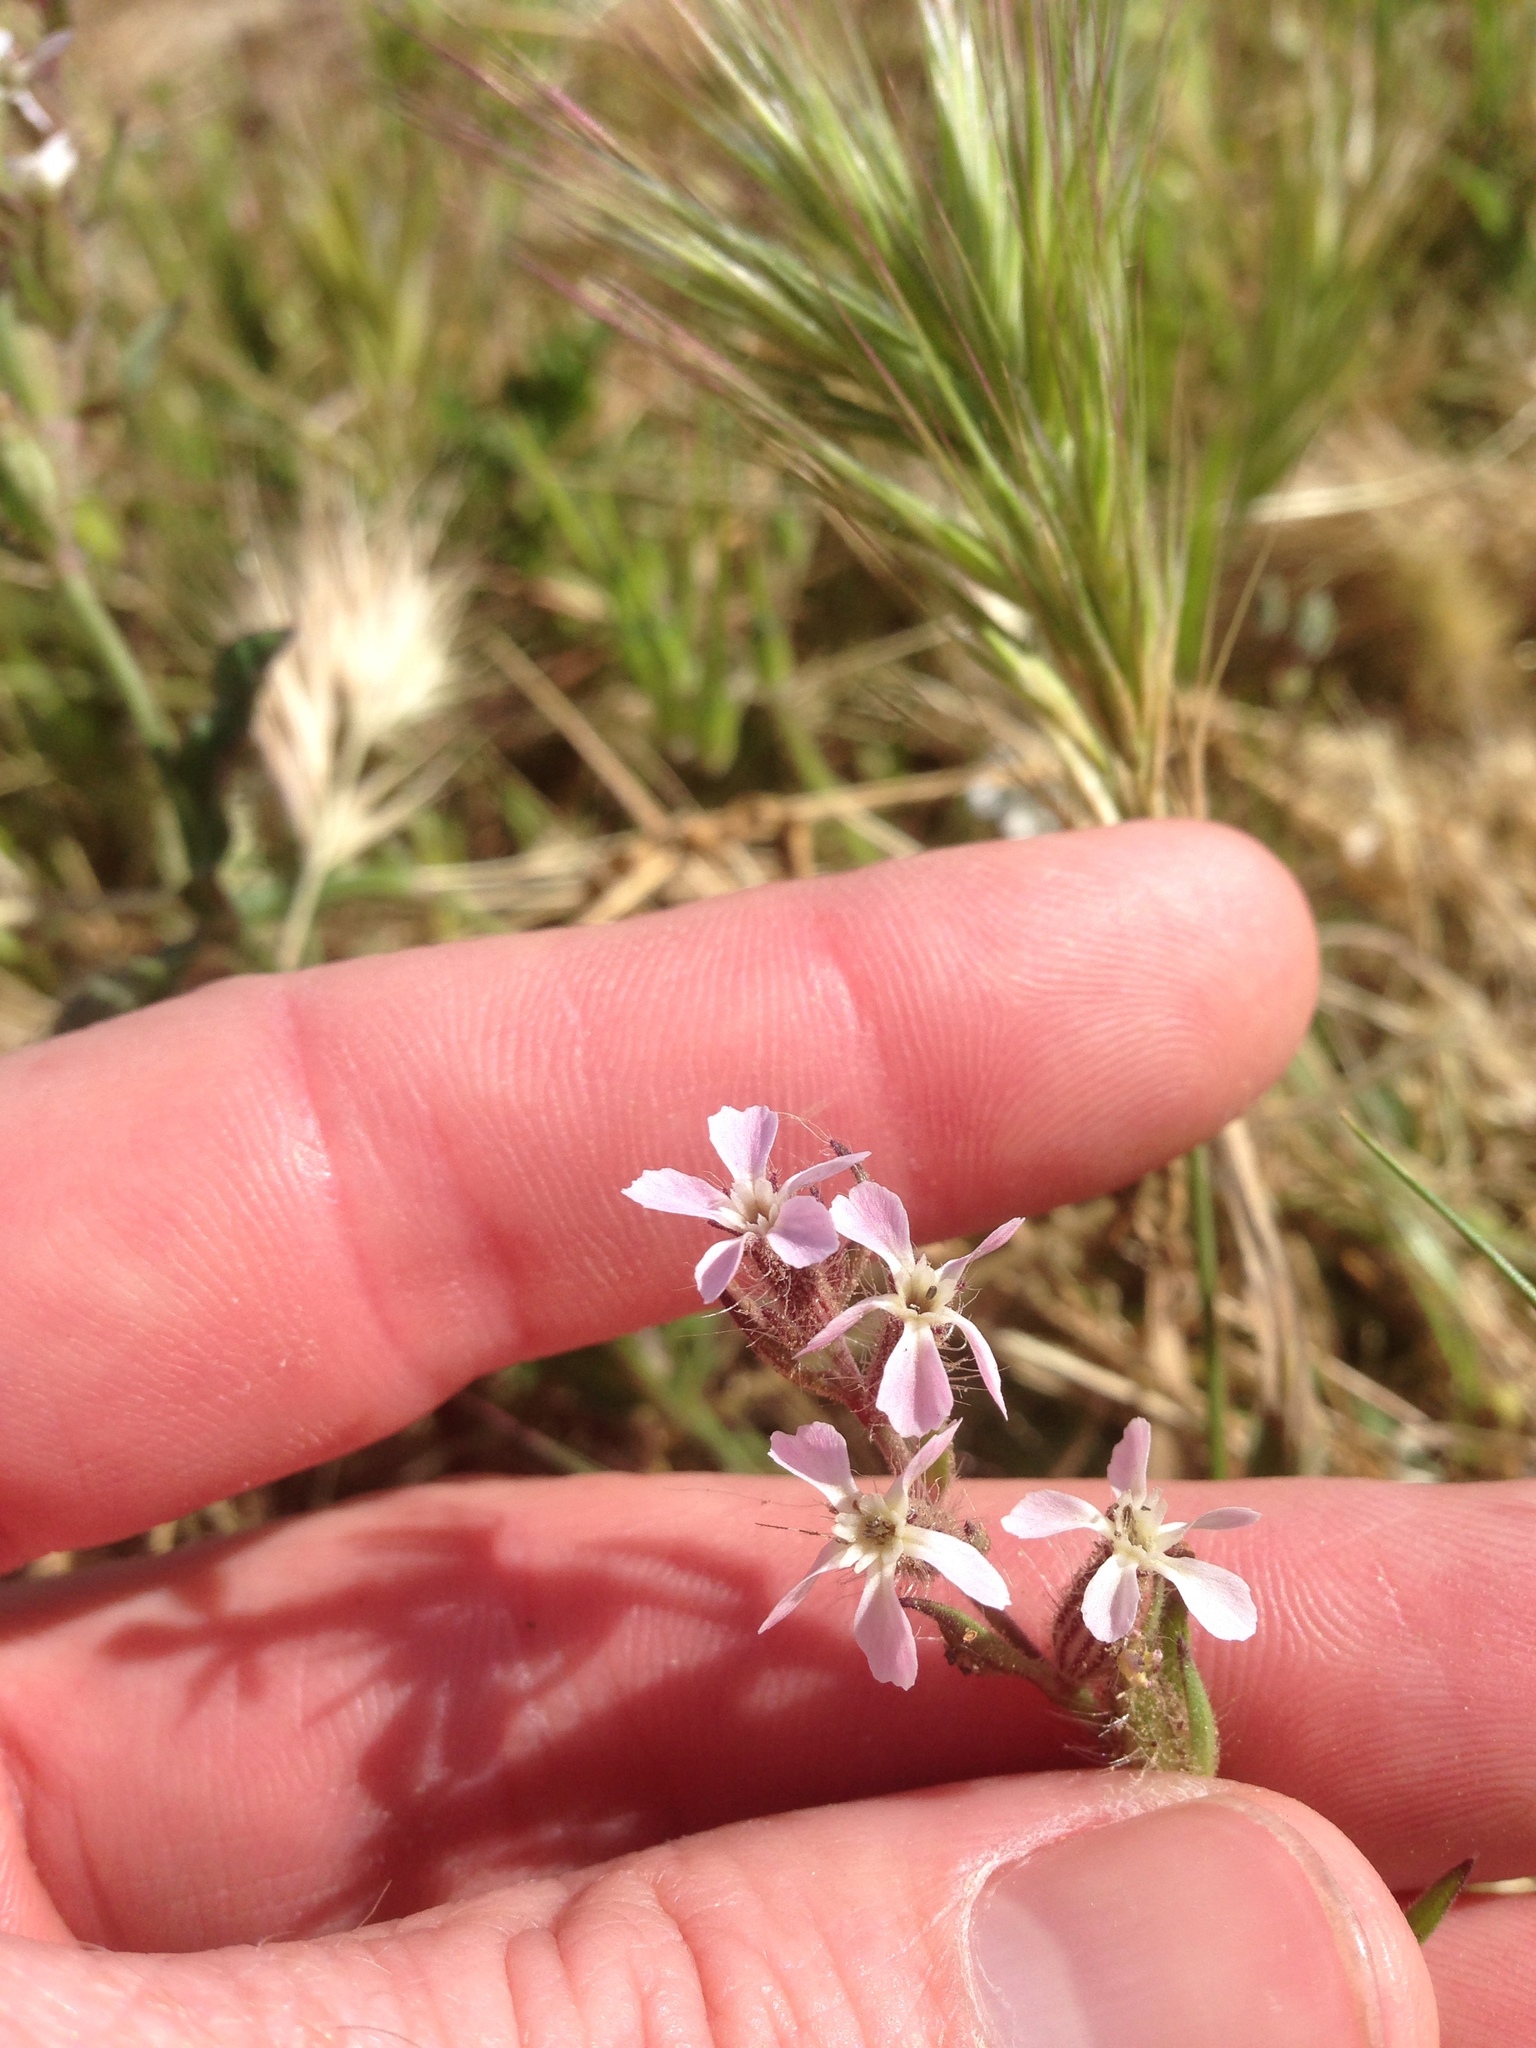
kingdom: Plantae
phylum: Tracheophyta
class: Magnoliopsida
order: Caryophyllales
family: Caryophyllaceae
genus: Silene
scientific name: Silene gallica
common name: Small-flowered catchfly
